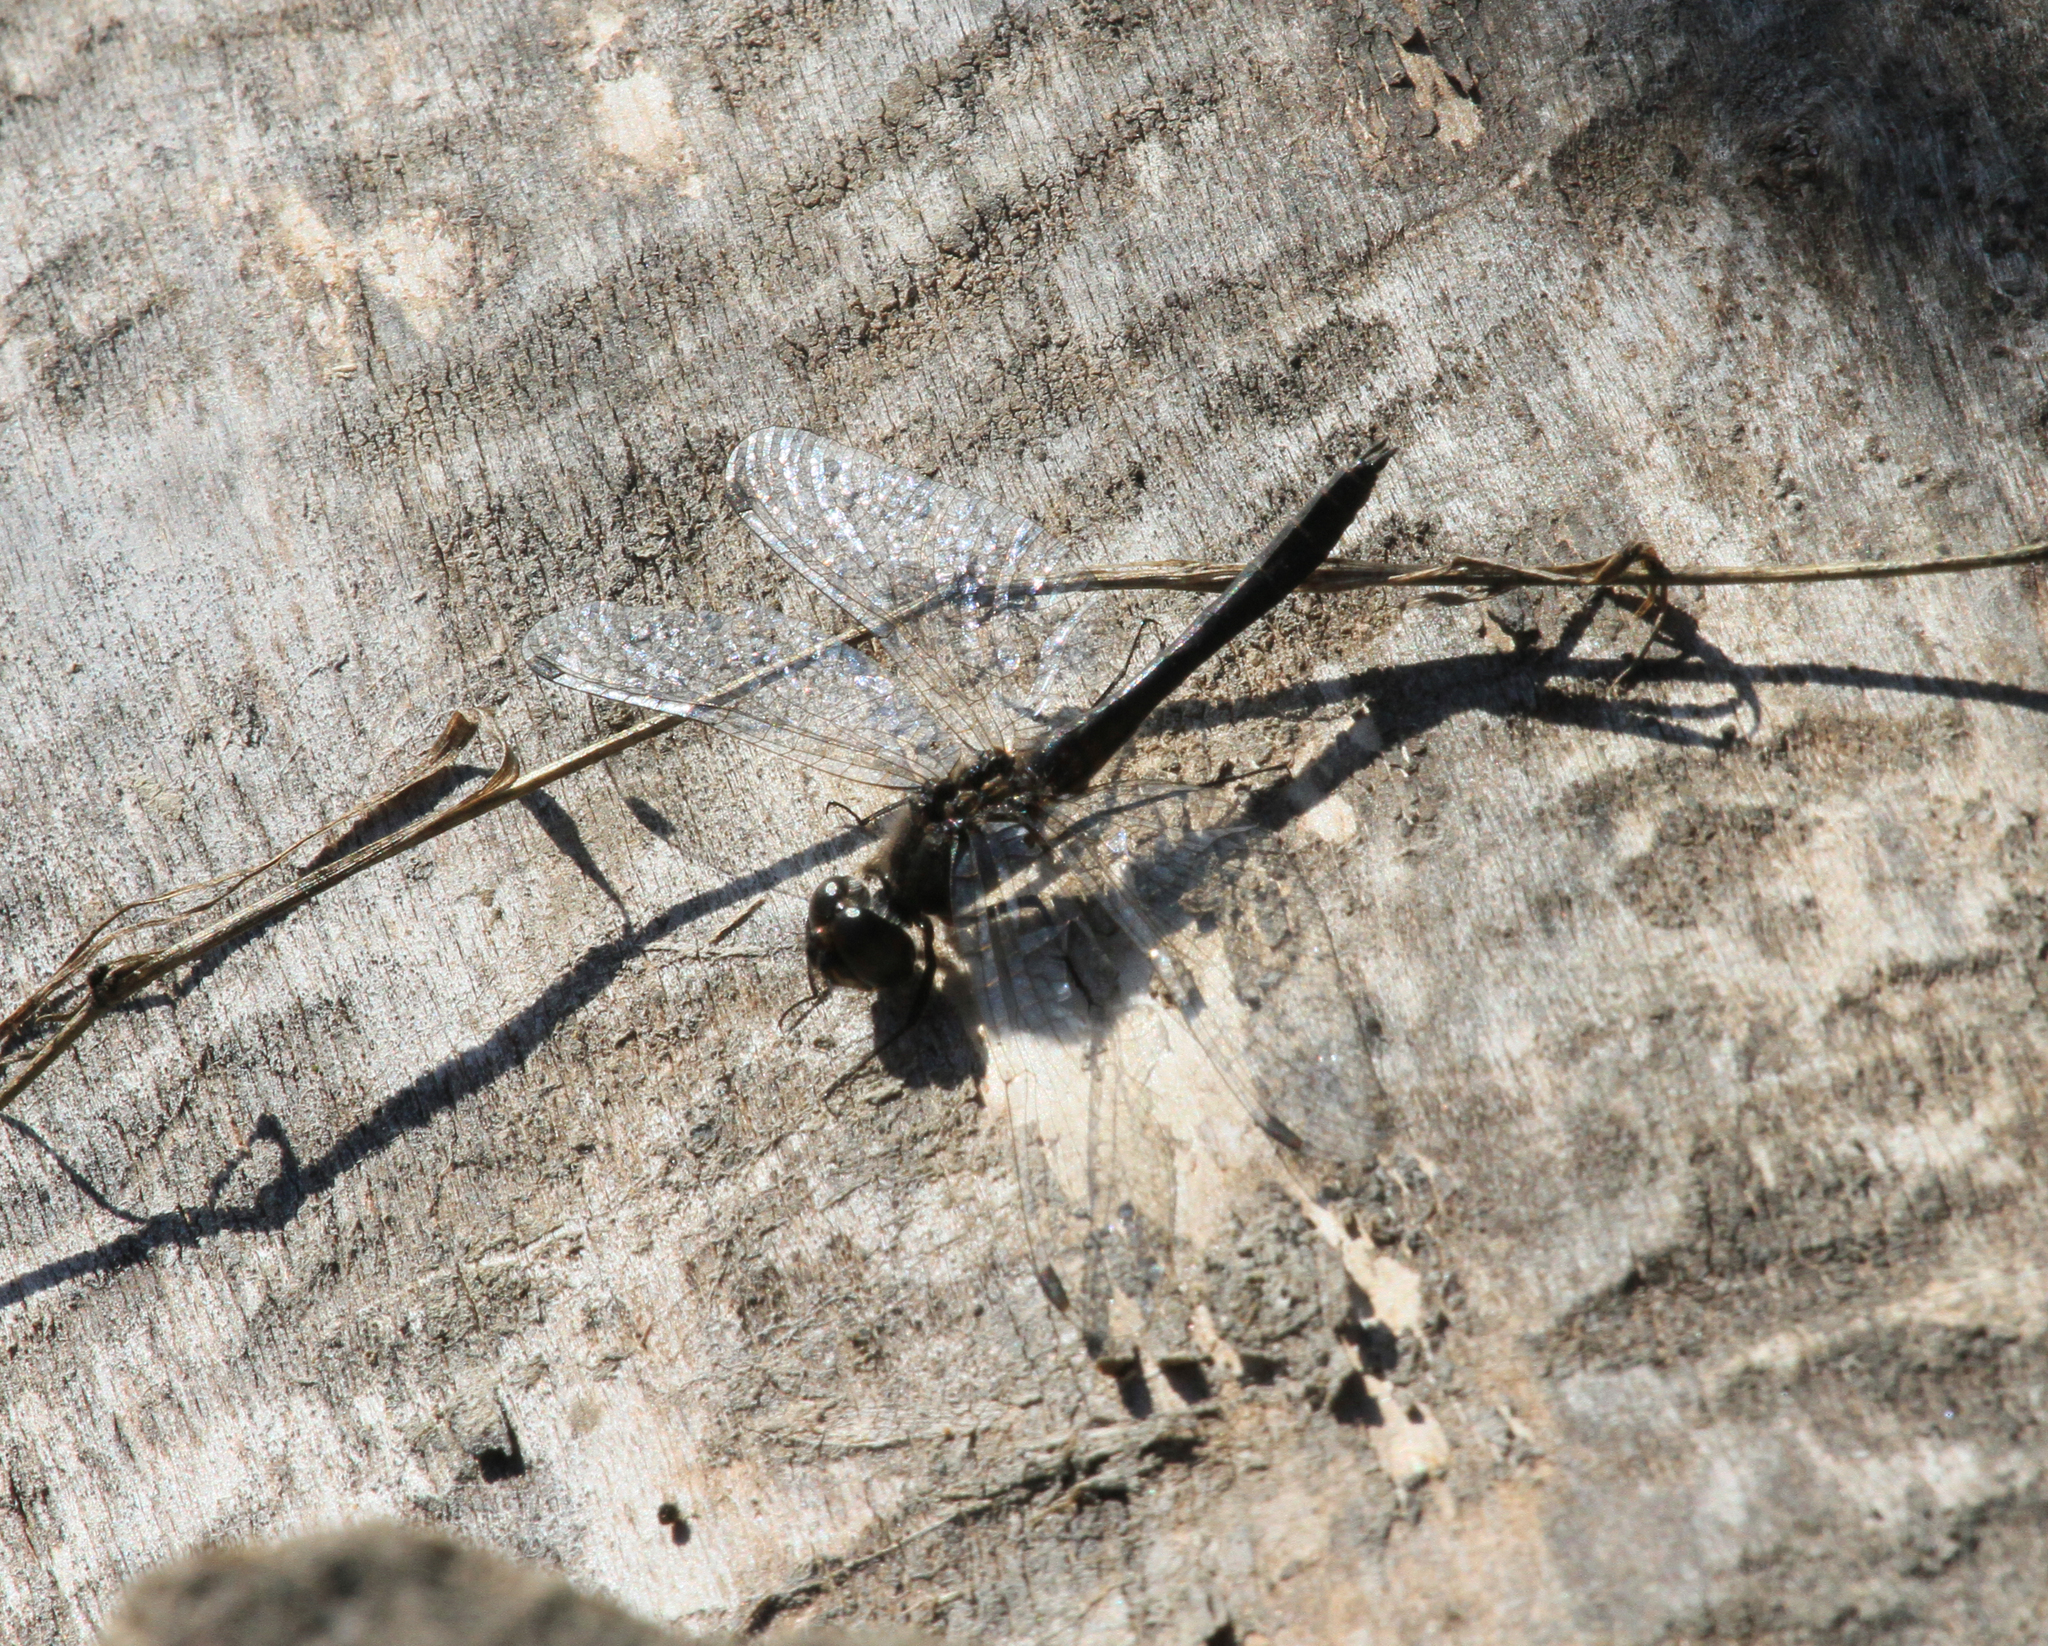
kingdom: Animalia
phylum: Arthropoda
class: Insecta
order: Odonata
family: Libellulidae
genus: Sympetrum
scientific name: Sympetrum danae
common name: Black darter
